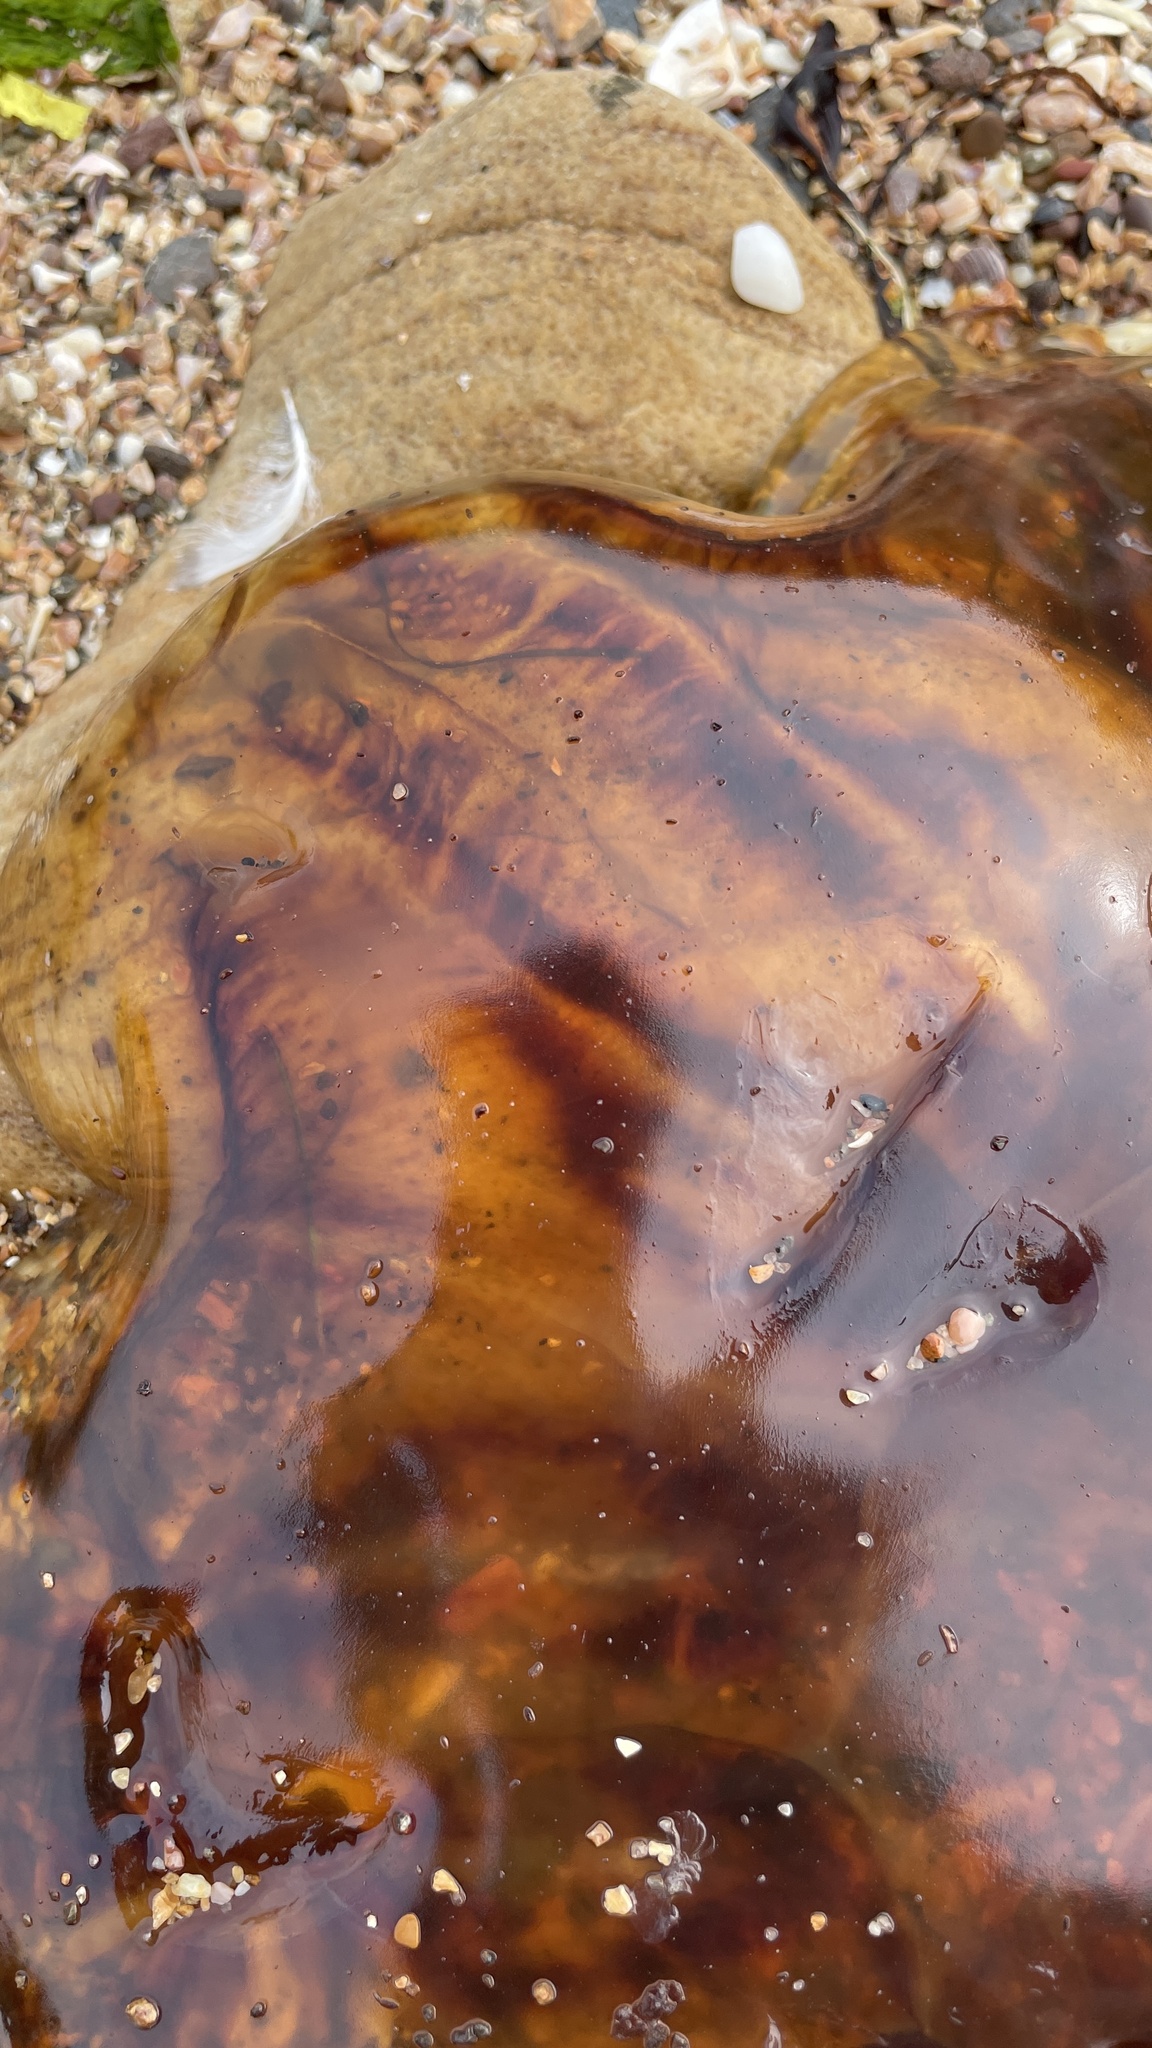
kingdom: Animalia
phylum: Cnidaria
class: Scyphozoa
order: Semaeostomeae
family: Cyaneidae
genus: Cyanea
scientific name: Cyanea capillata
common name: Lion's mane jellyfish
